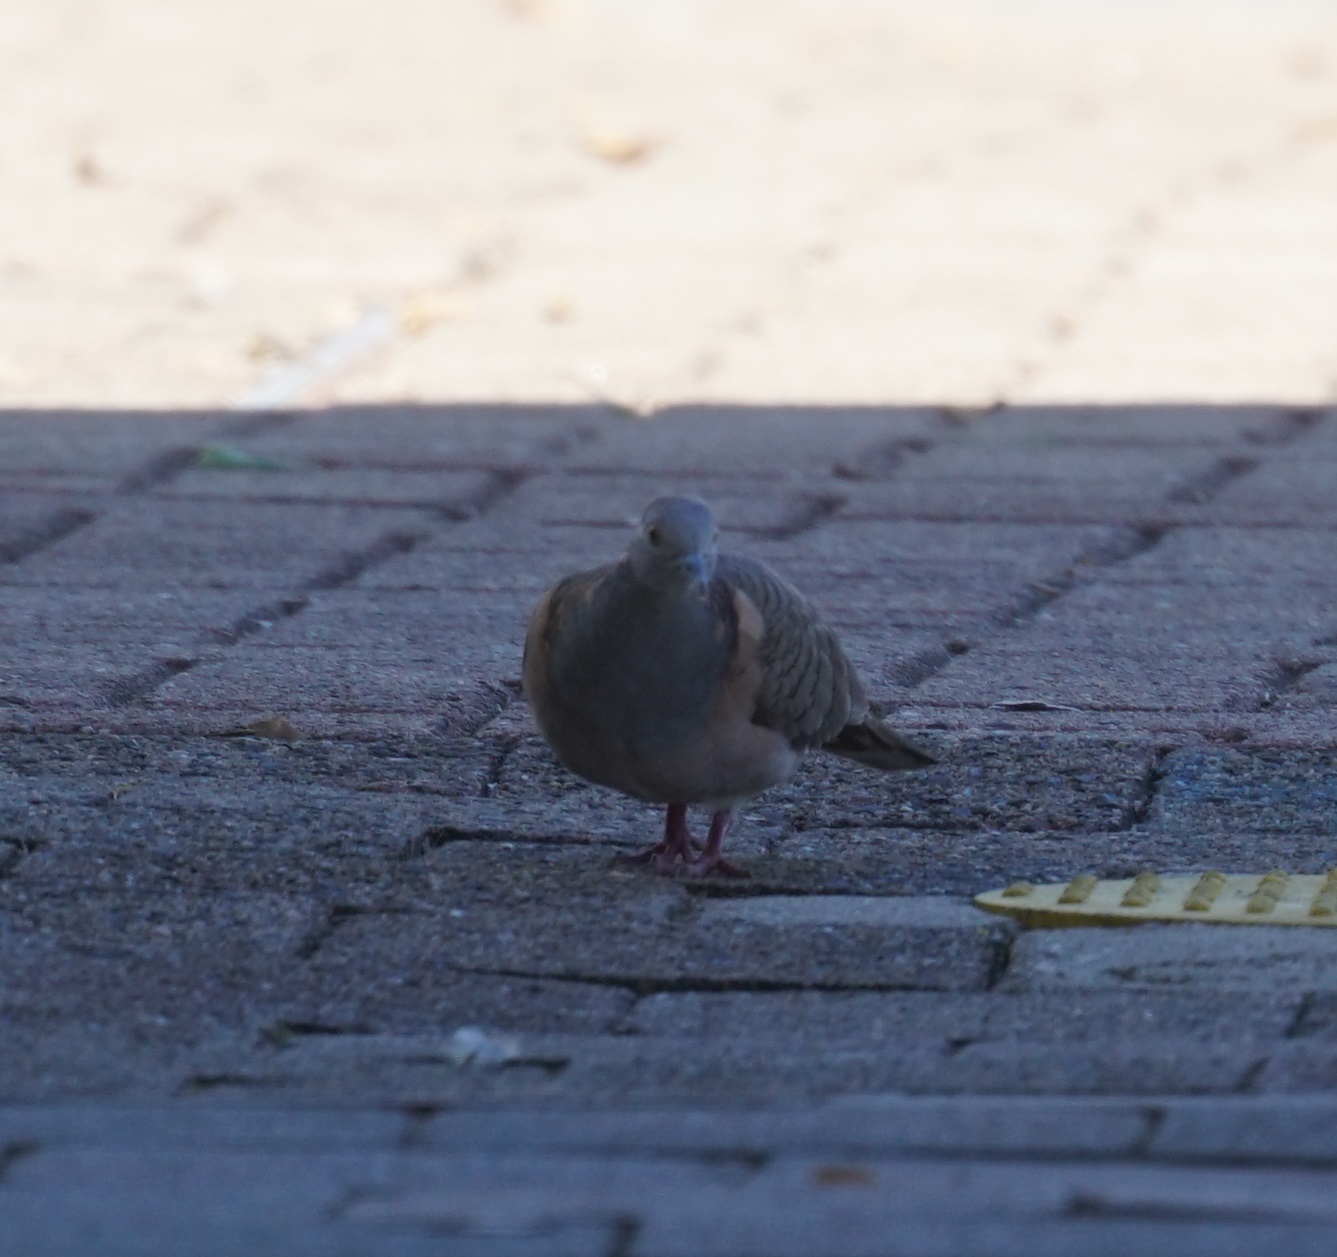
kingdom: Animalia
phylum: Chordata
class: Aves
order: Columbiformes
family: Columbidae
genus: Geopelia
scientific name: Geopelia humeralis
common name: Bar-shouldered dove
